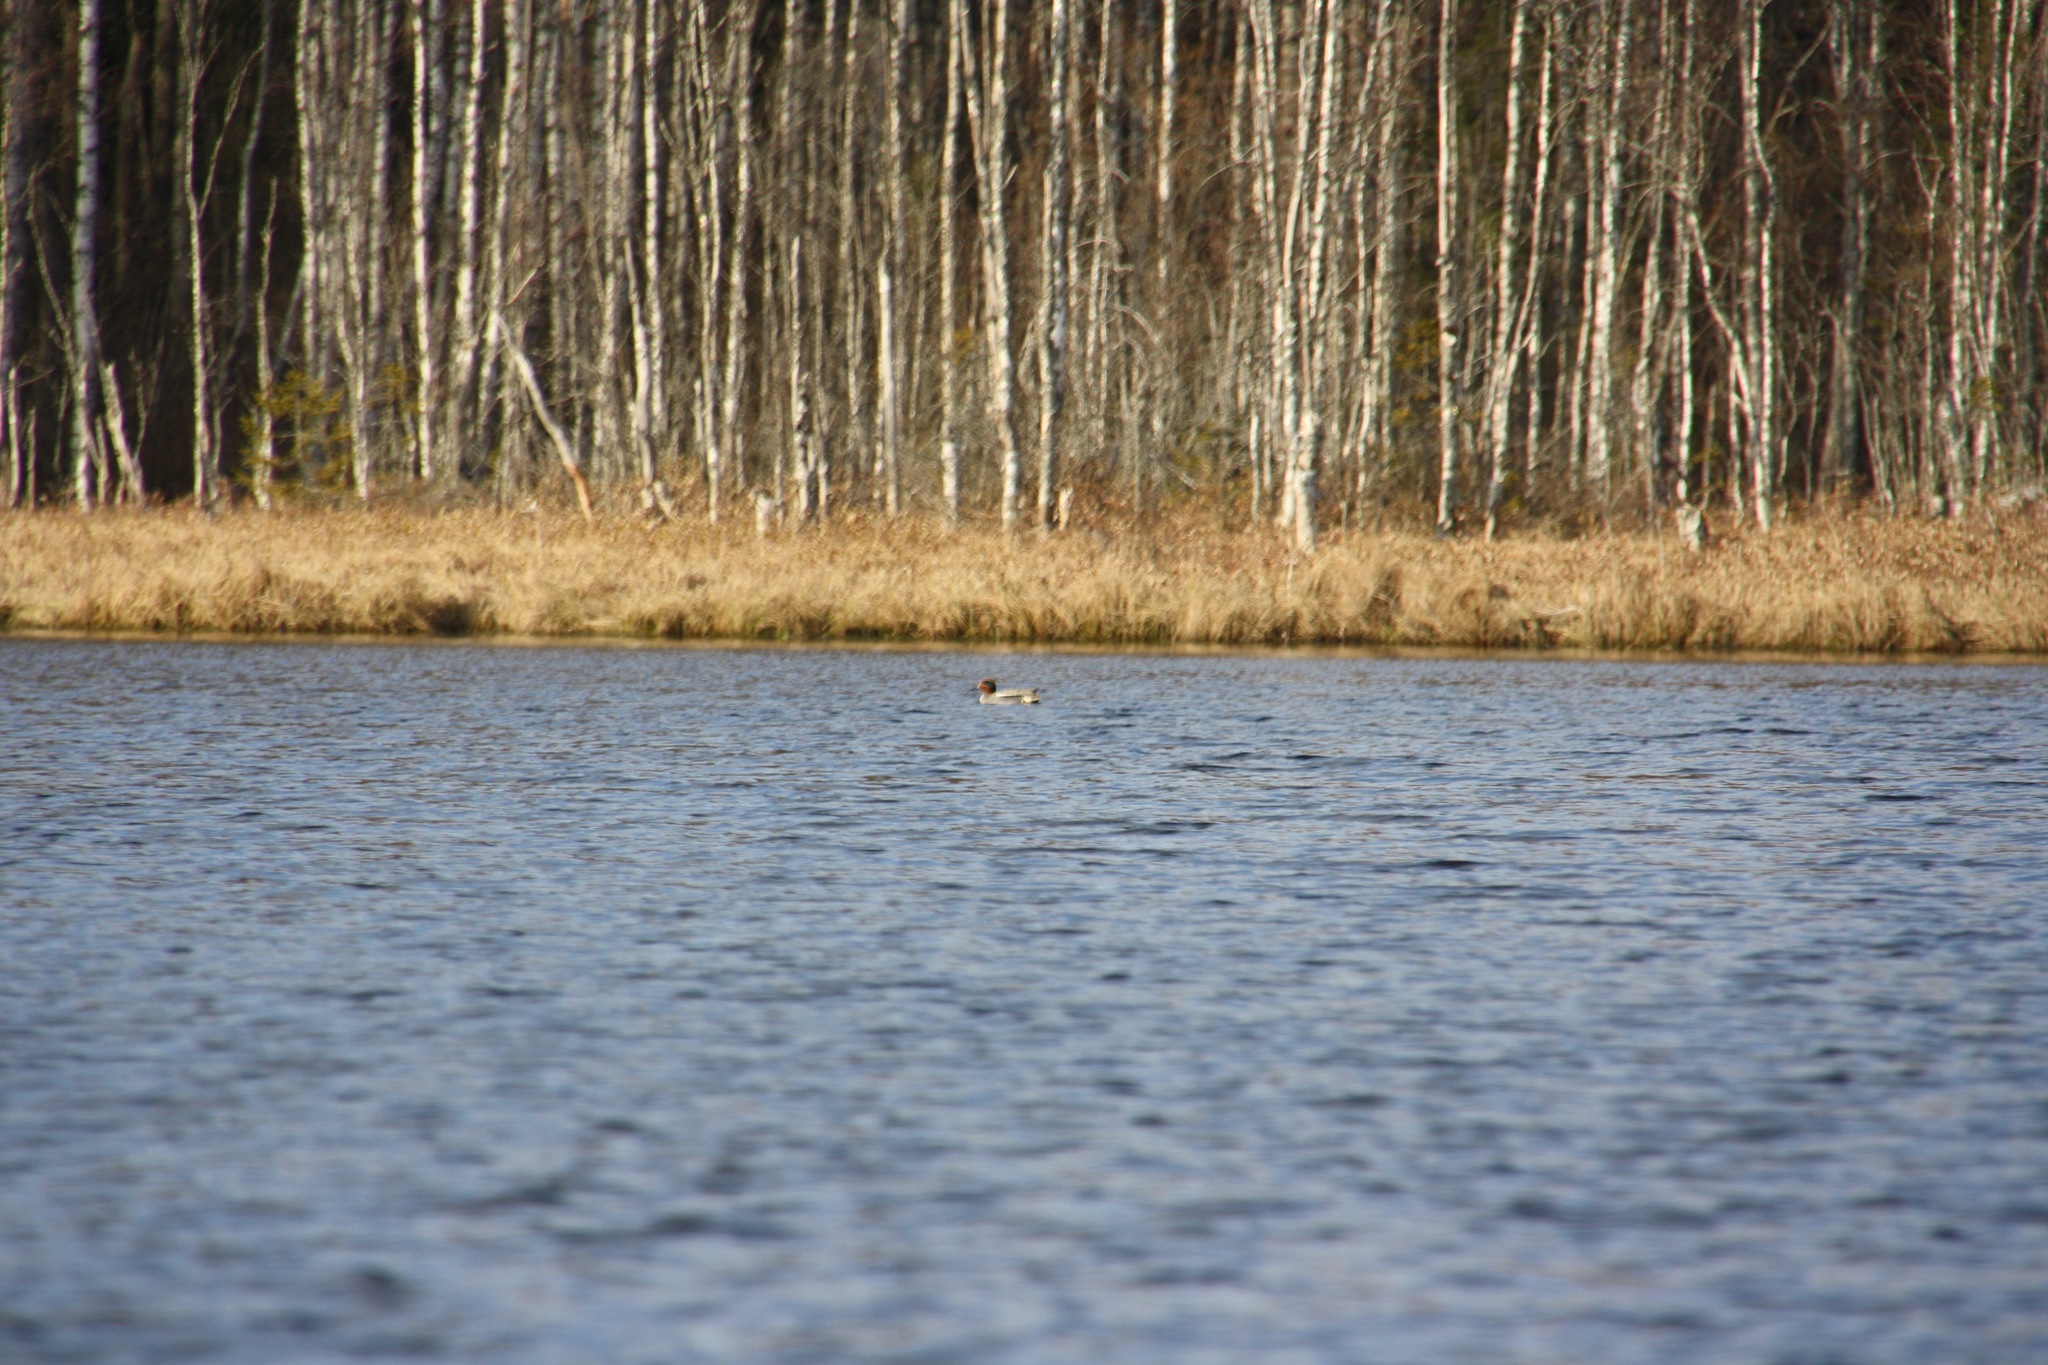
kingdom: Animalia
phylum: Chordata
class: Aves
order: Anseriformes
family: Anatidae
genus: Anas
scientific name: Anas crecca
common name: Eurasian teal
